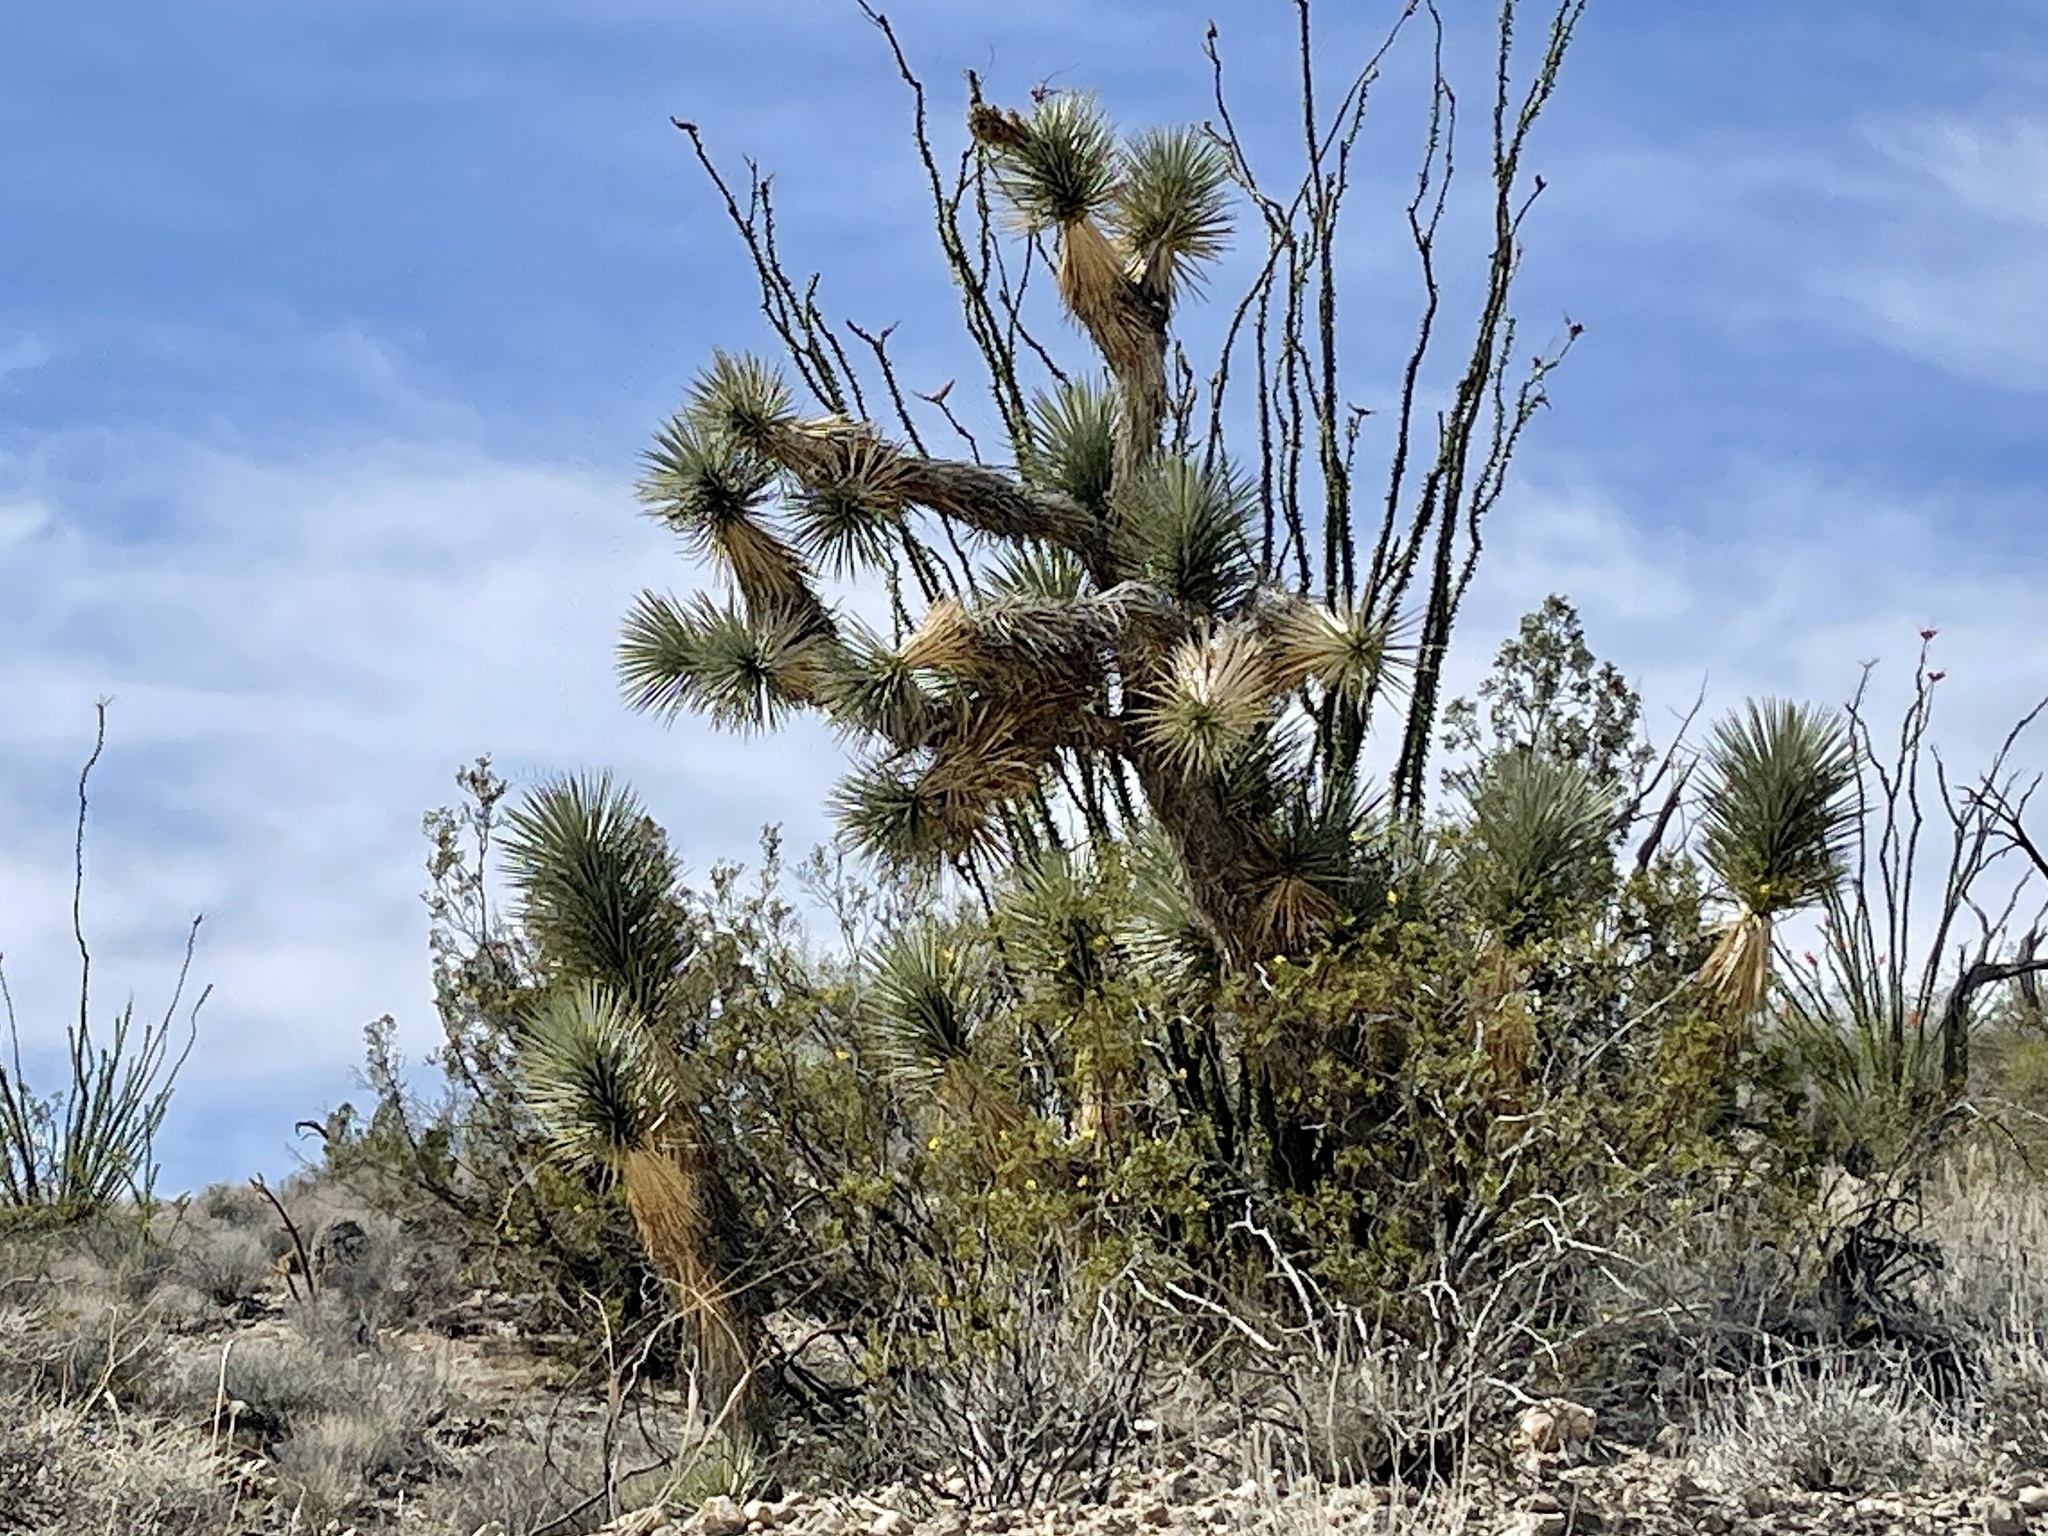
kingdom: Plantae
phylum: Tracheophyta
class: Liliopsida
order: Asparagales
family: Asparagaceae
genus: Yucca
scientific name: Yucca brevifolia
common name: Joshua tree
